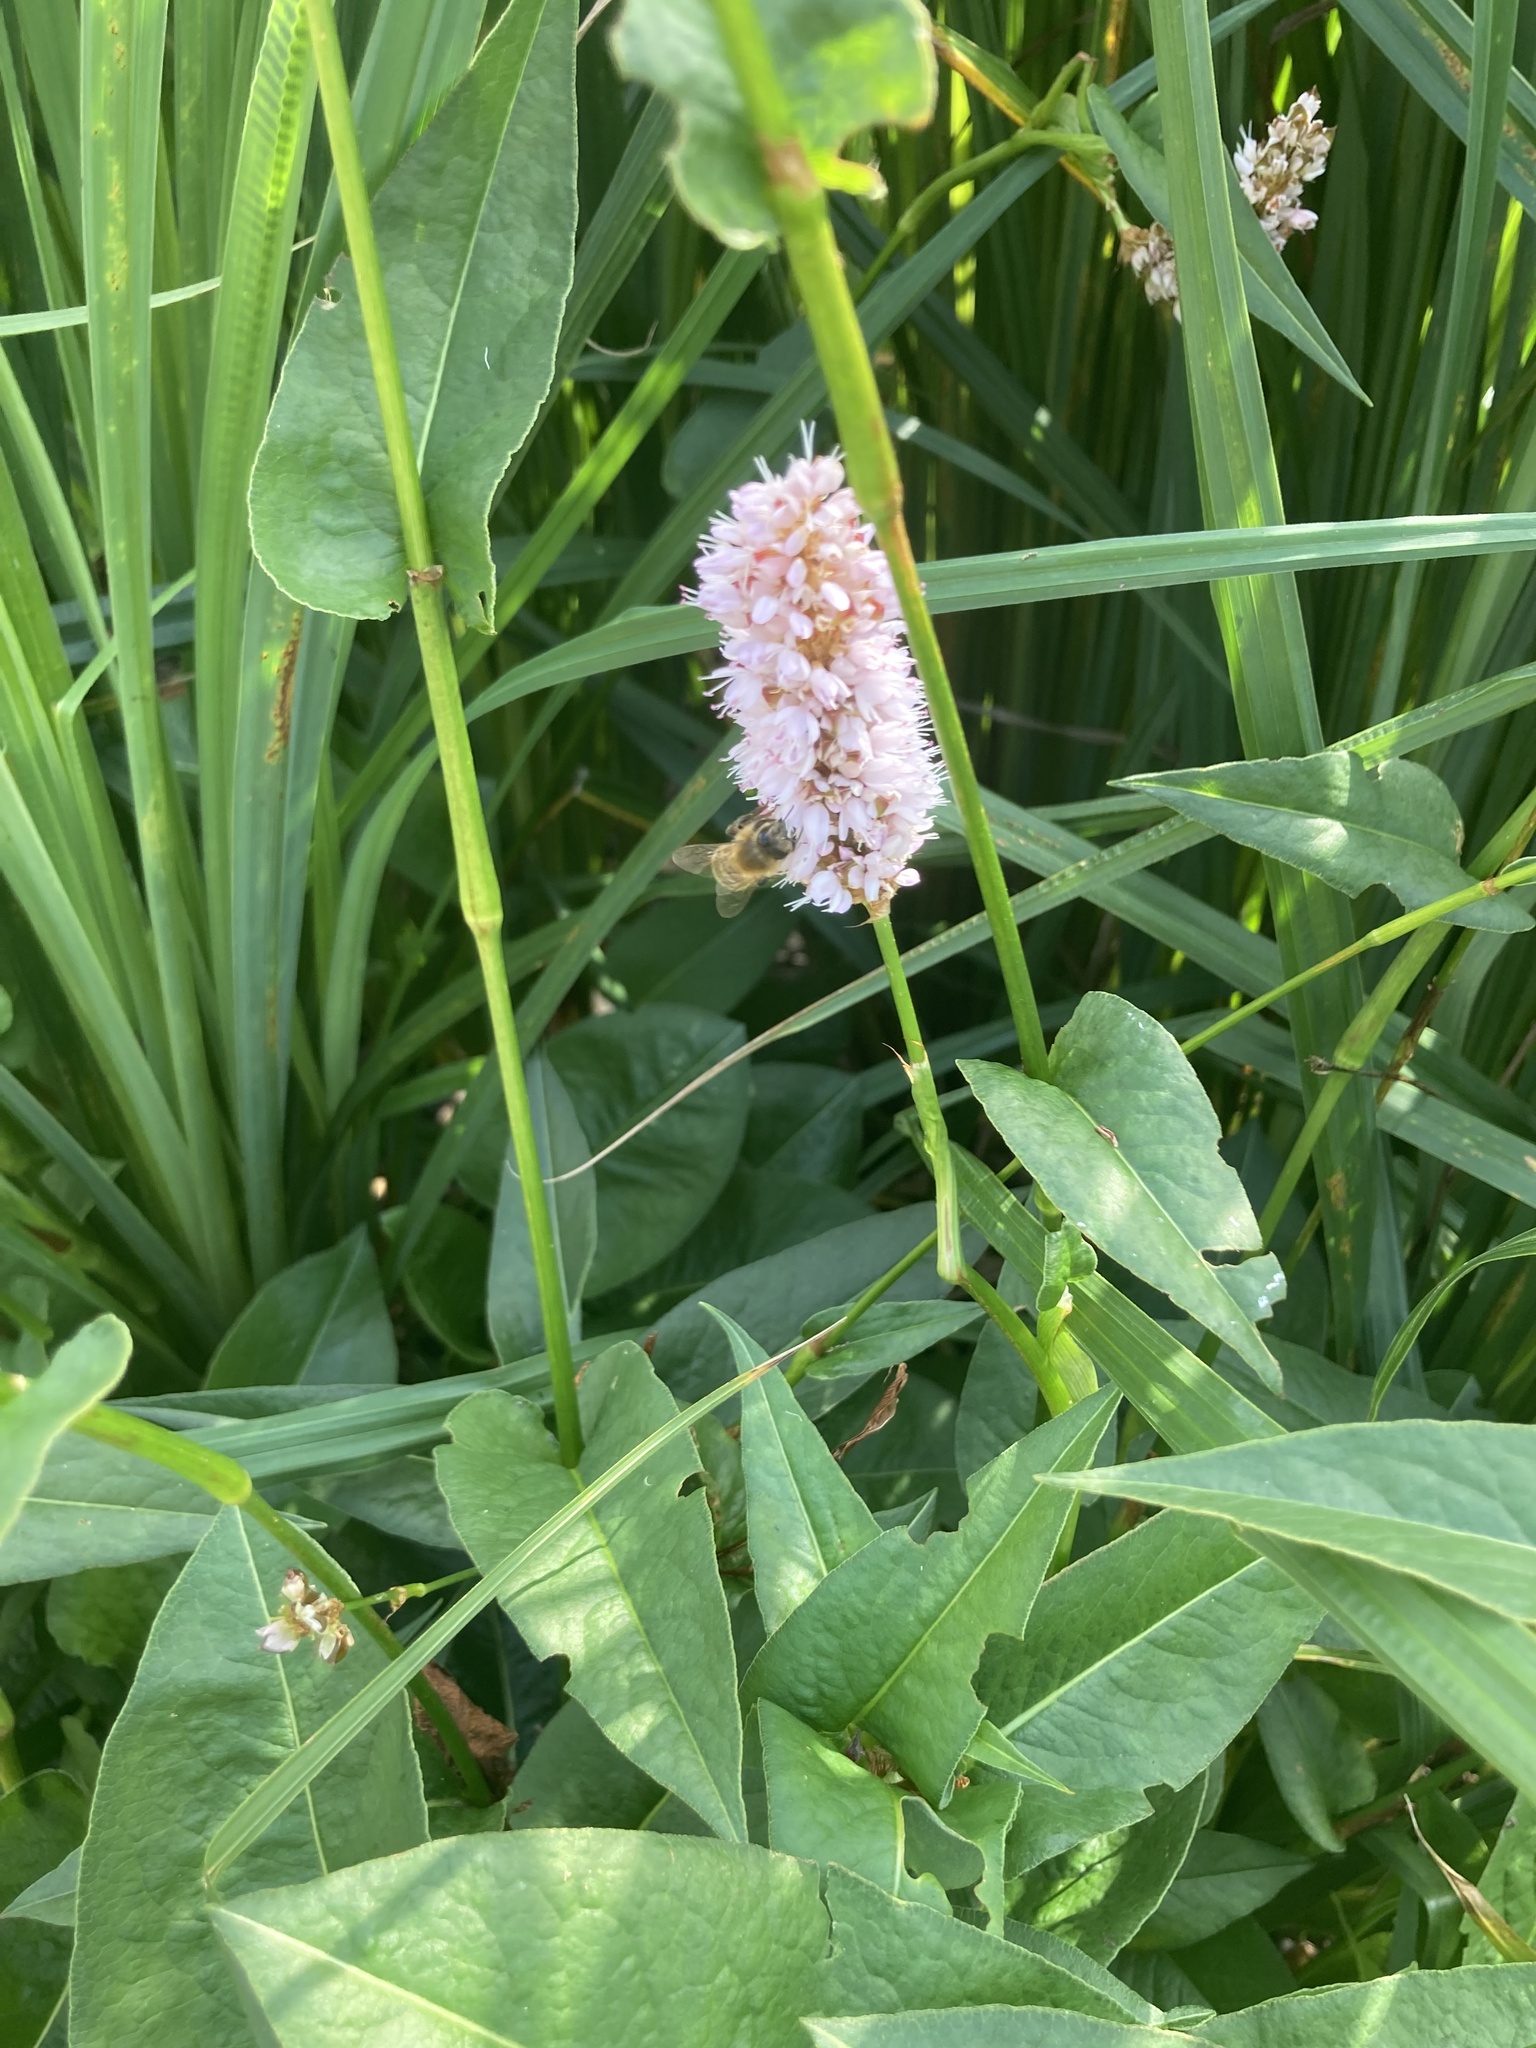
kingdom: Animalia
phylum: Arthropoda
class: Insecta
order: Hymenoptera
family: Apidae
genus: Apis
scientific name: Apis mellifera
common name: Honey bee
